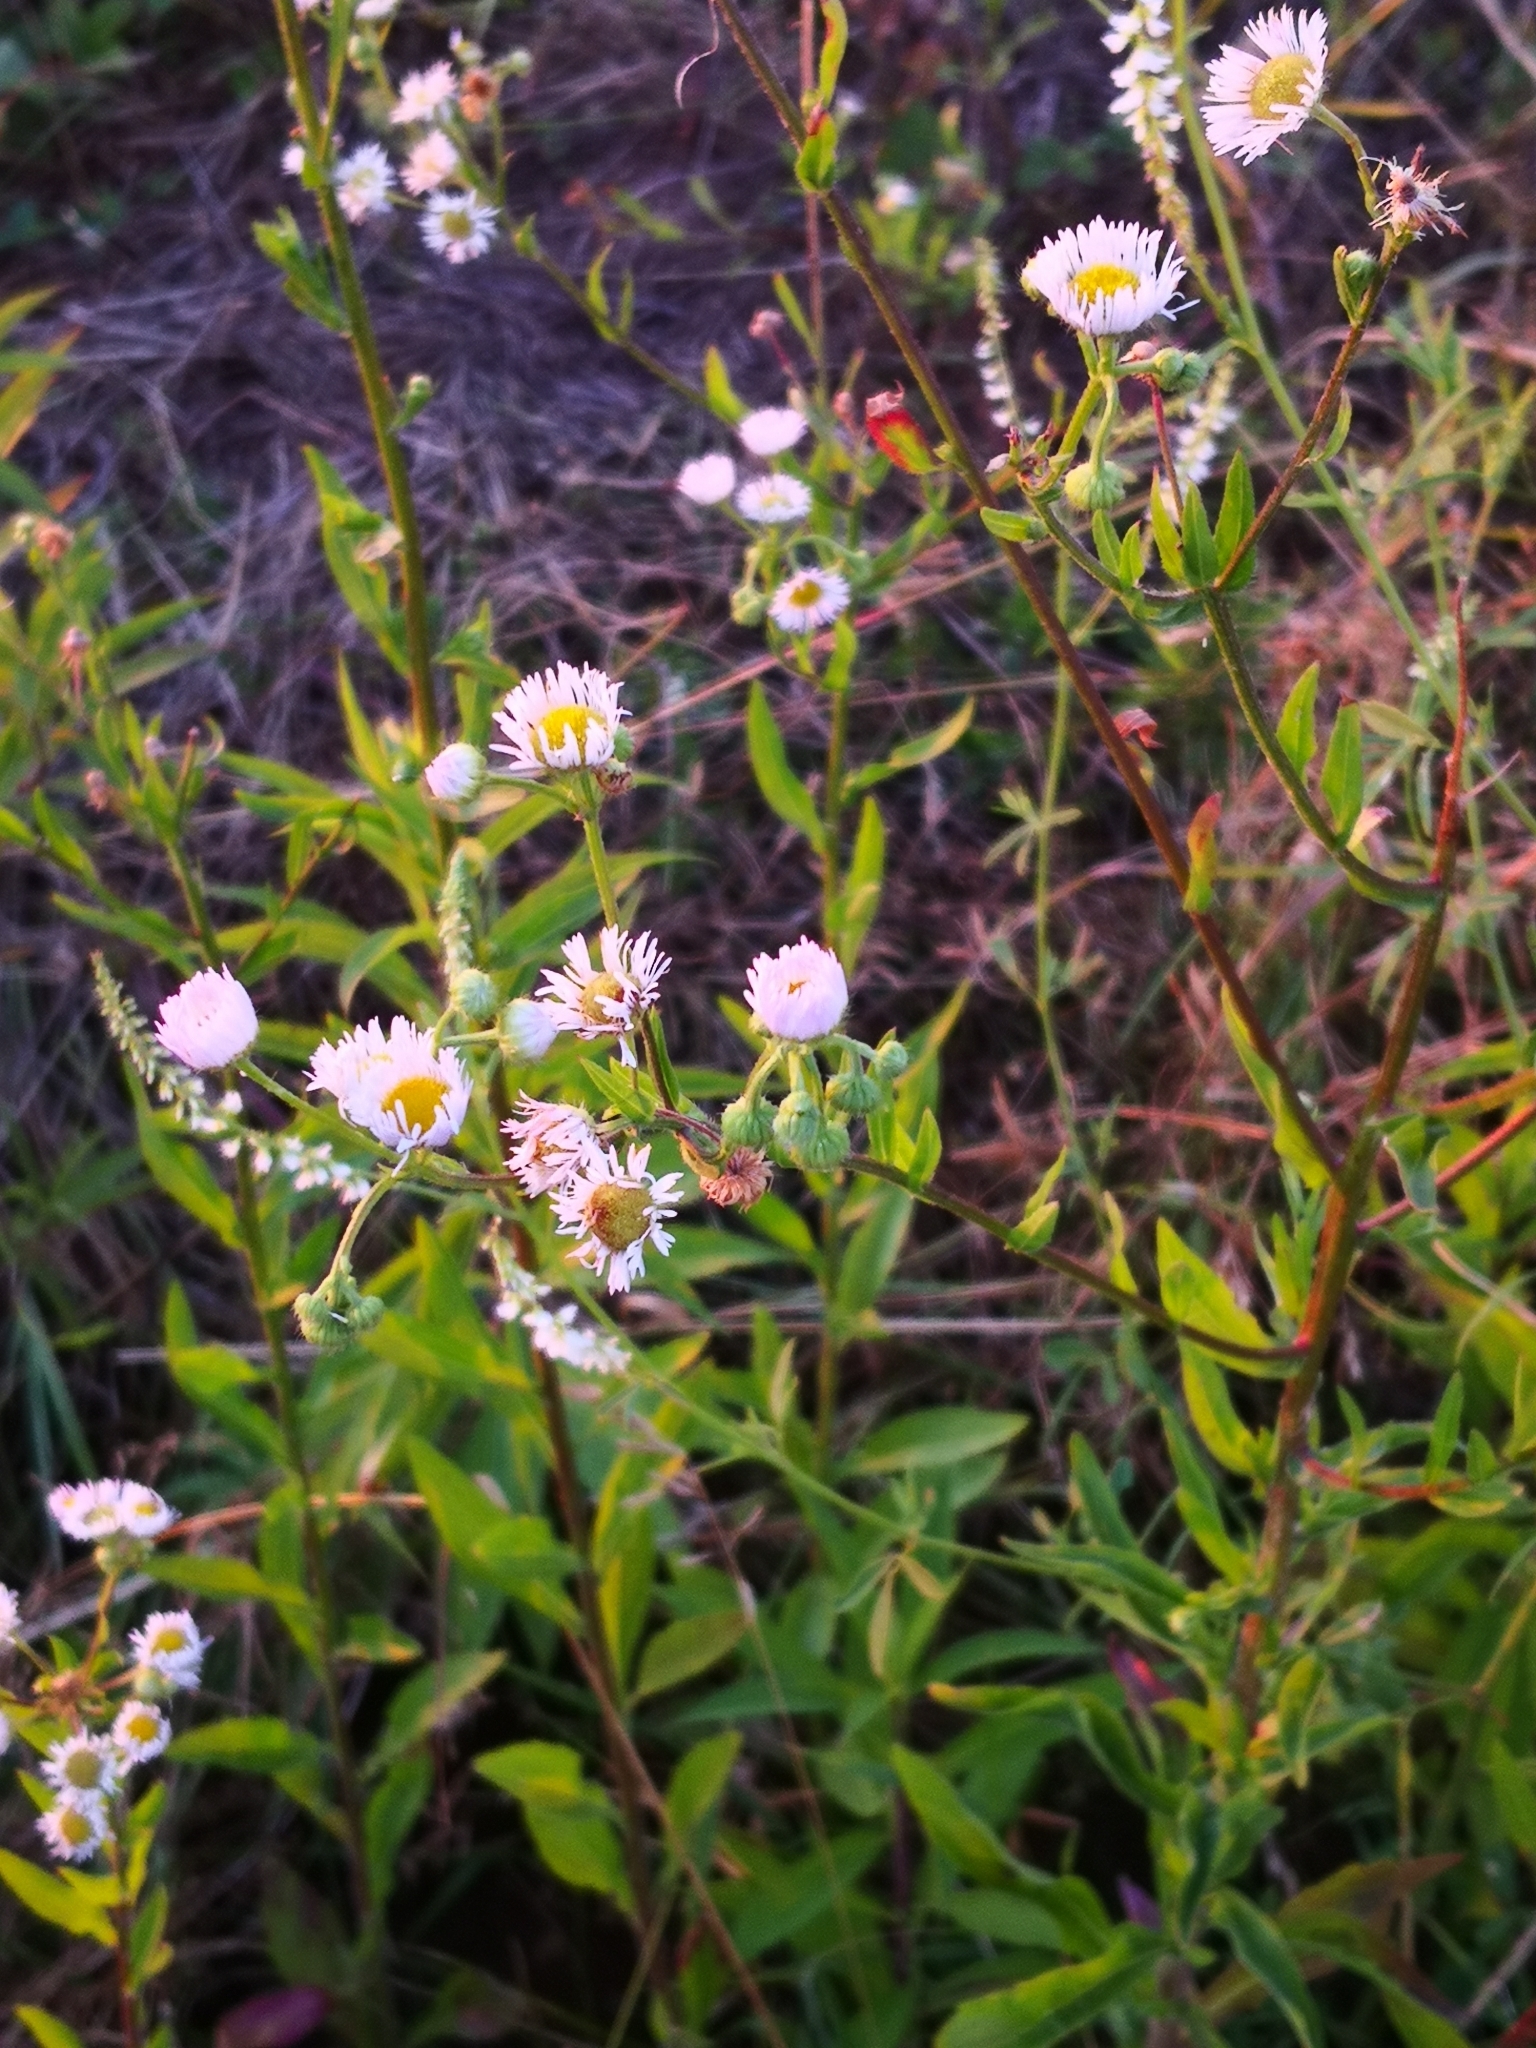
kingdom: Plantae
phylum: Tracheophyta
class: Magnoliopsida
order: Asterales
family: Asteraceae
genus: Erigeron
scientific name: Erigeron annuus
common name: Tall fleabane
